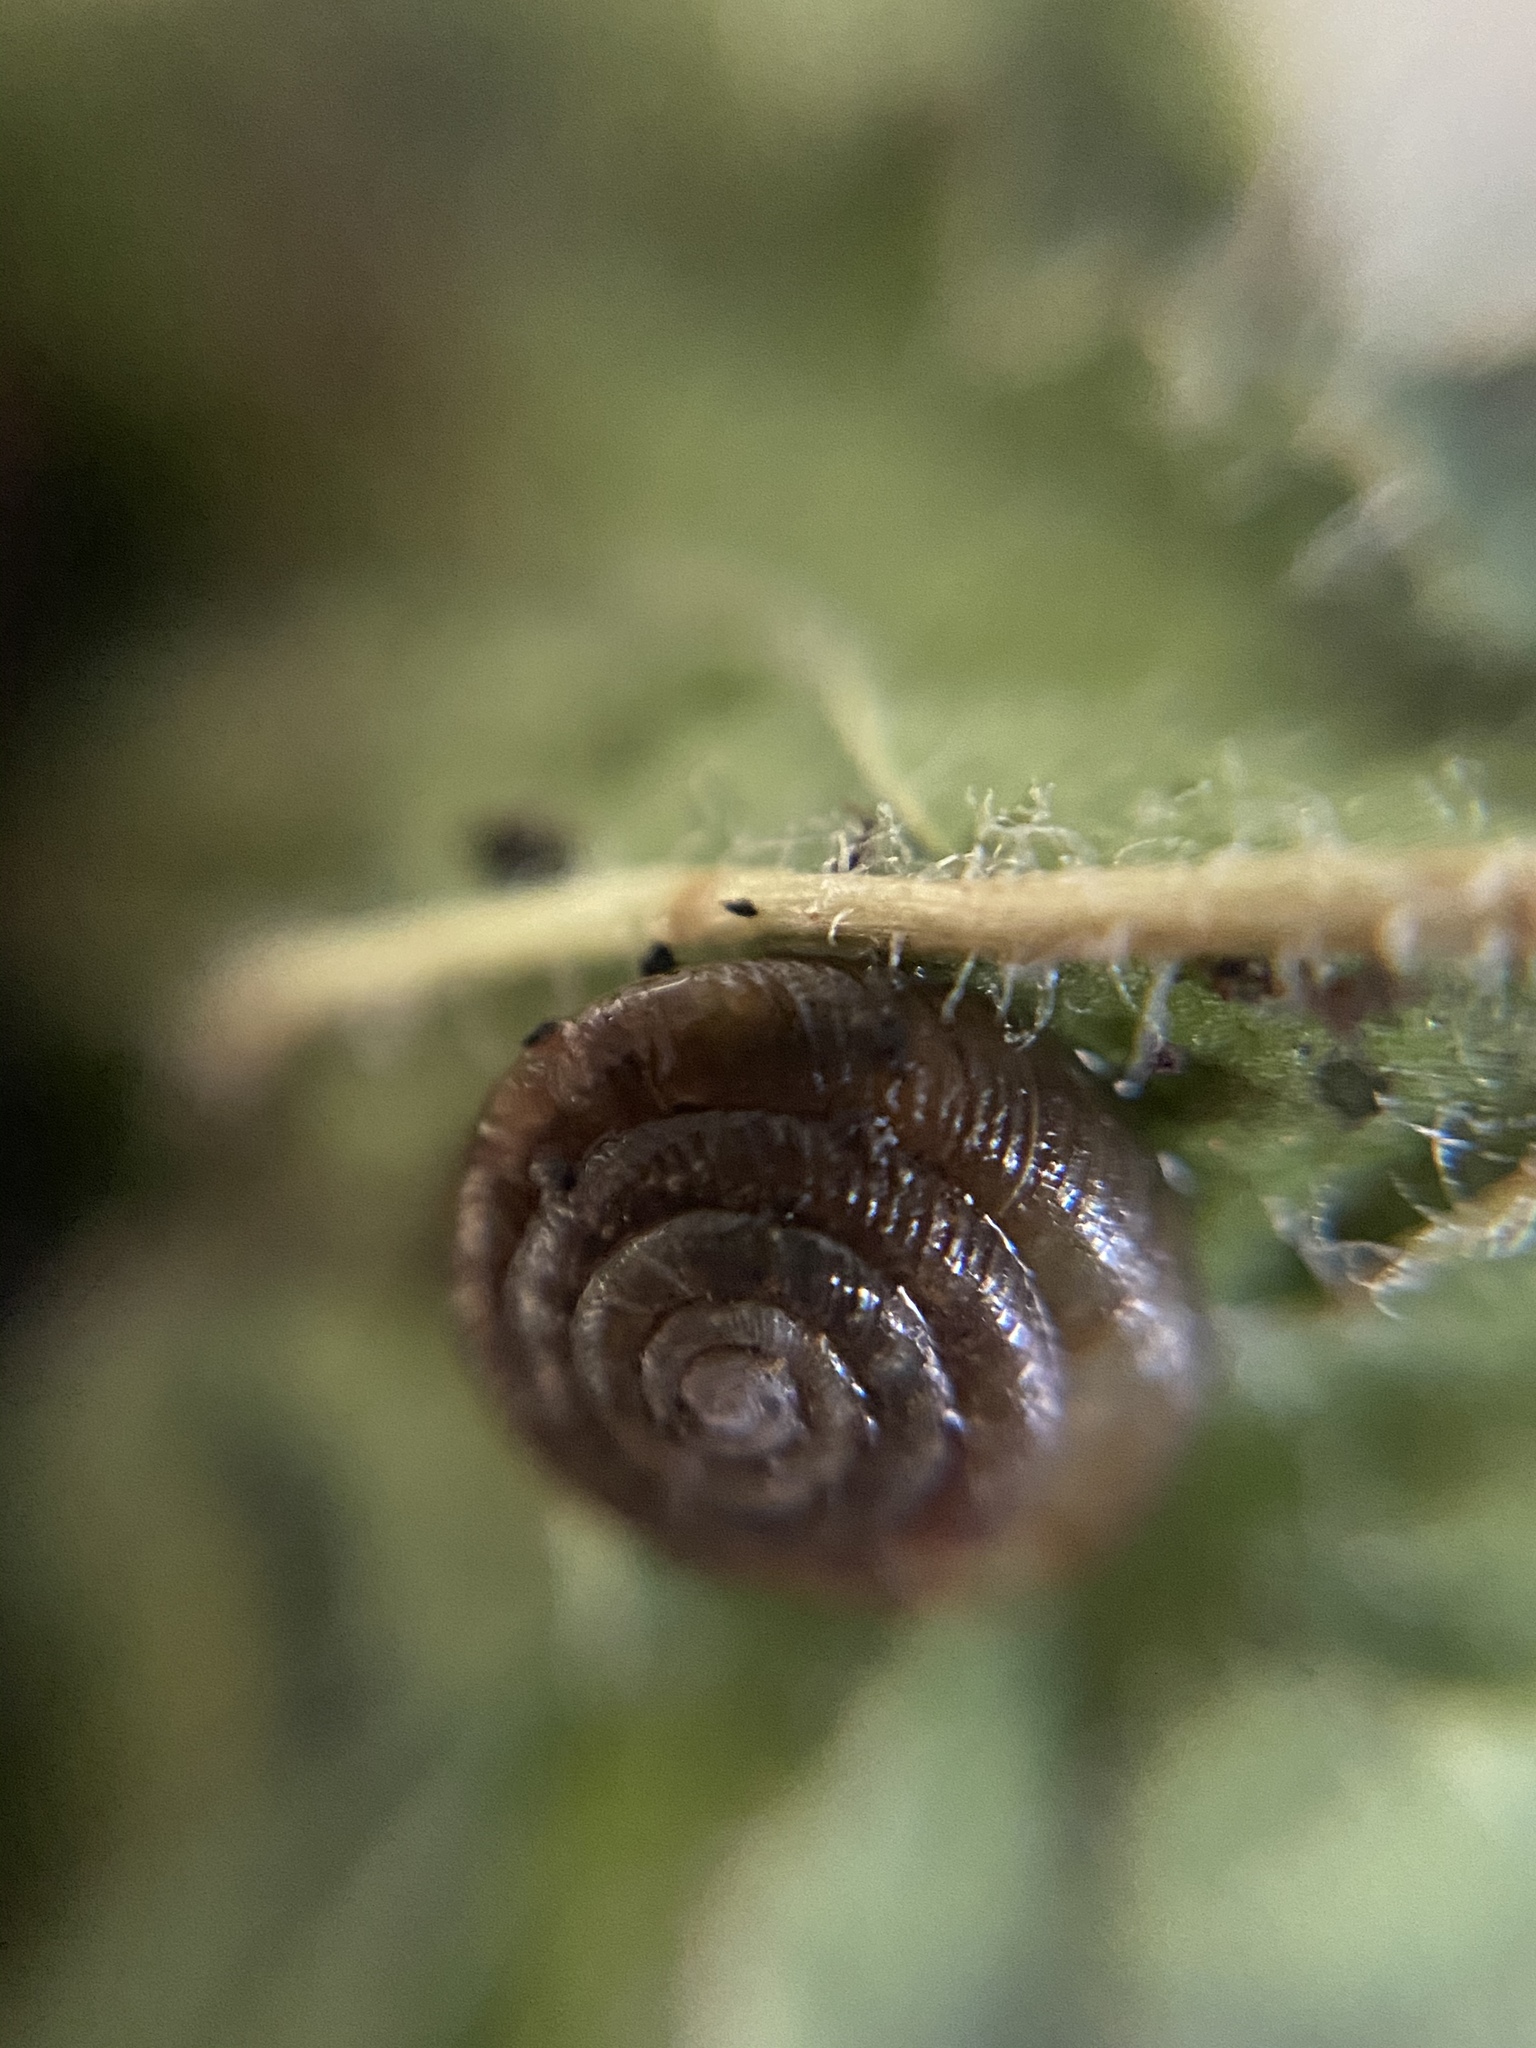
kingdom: Animalia
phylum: Mollusca
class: Gastropoda
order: Stylommatophora
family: Discidae
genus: Discus
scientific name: Discus rotundatus
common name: Rounded snail
